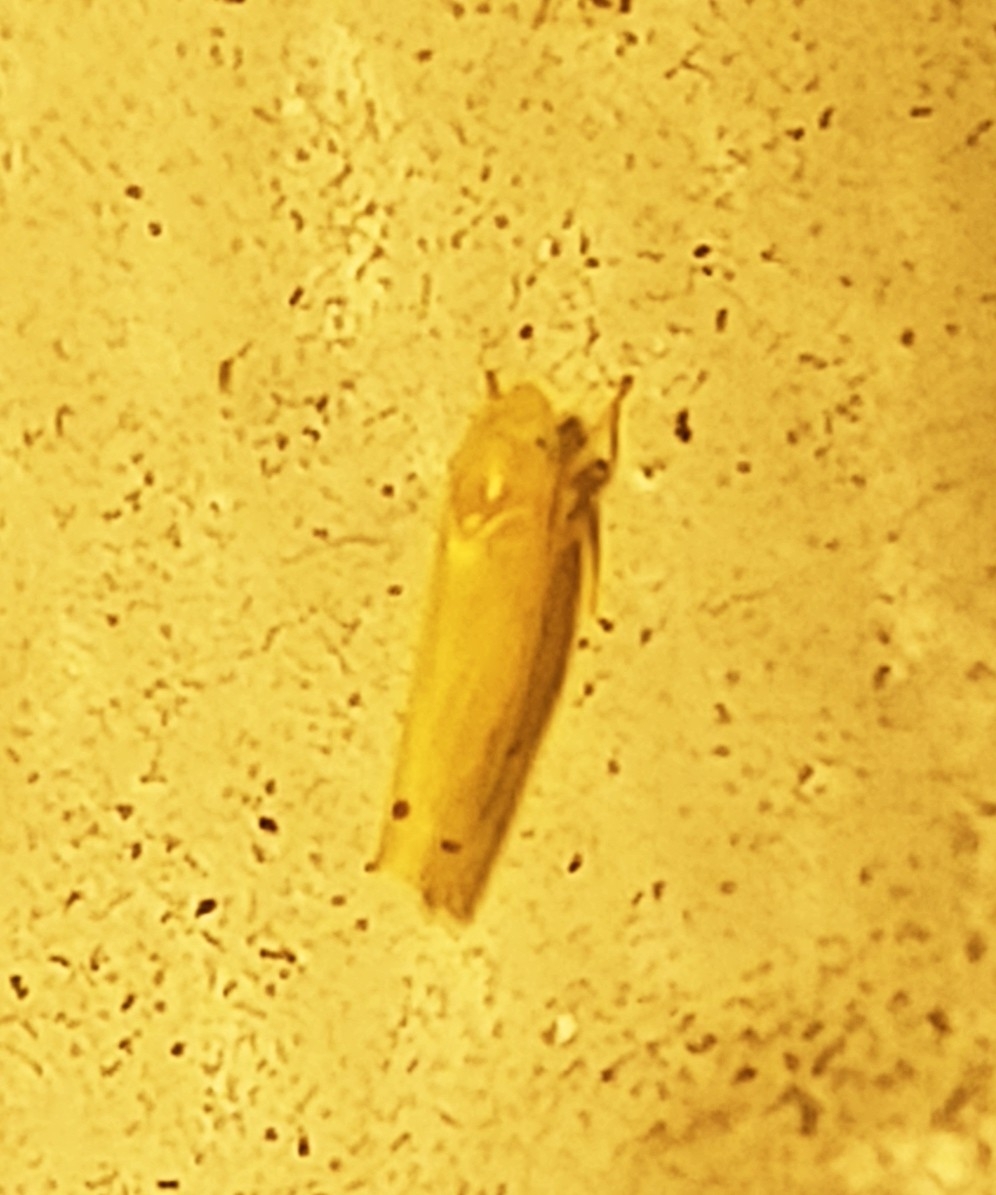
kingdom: Animalia
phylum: Arthropoda
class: Insecta
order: Hemiptera
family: Cicadellidae
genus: Dikrella
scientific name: Dikrella cedrelae
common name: Leafhopper
